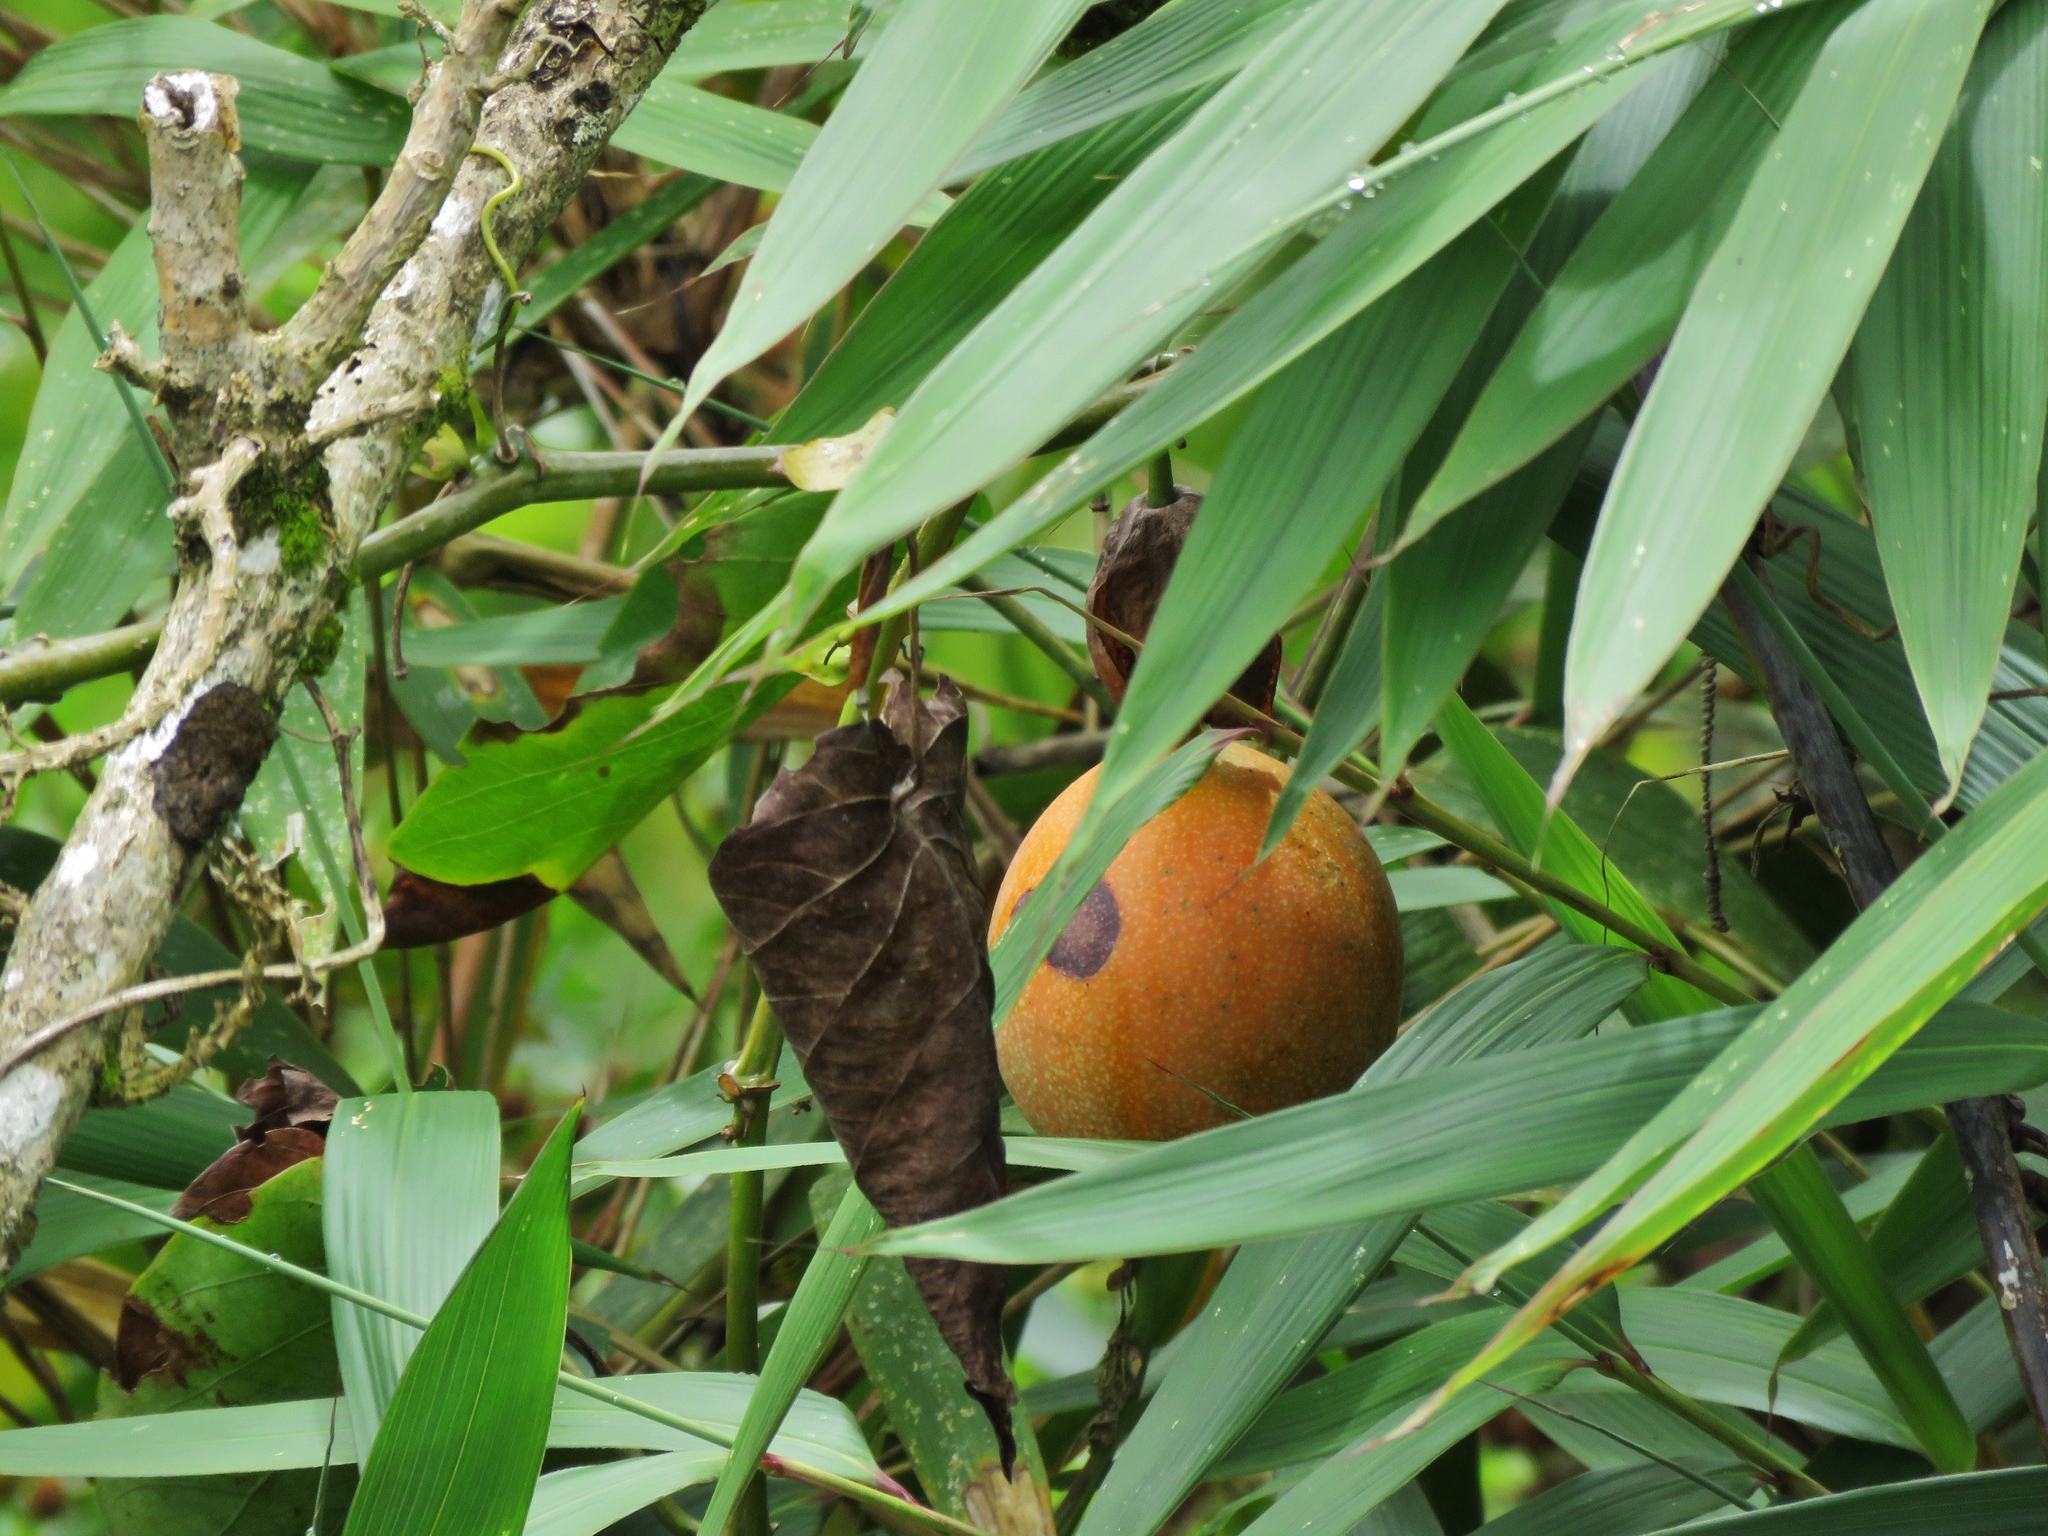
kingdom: Plantae
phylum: Tracheophyta
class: Magnoliopsida
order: Malpighiales
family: Passifloraceae
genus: Passiflora
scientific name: Passiflora ligularis
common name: Sweet granadilla
